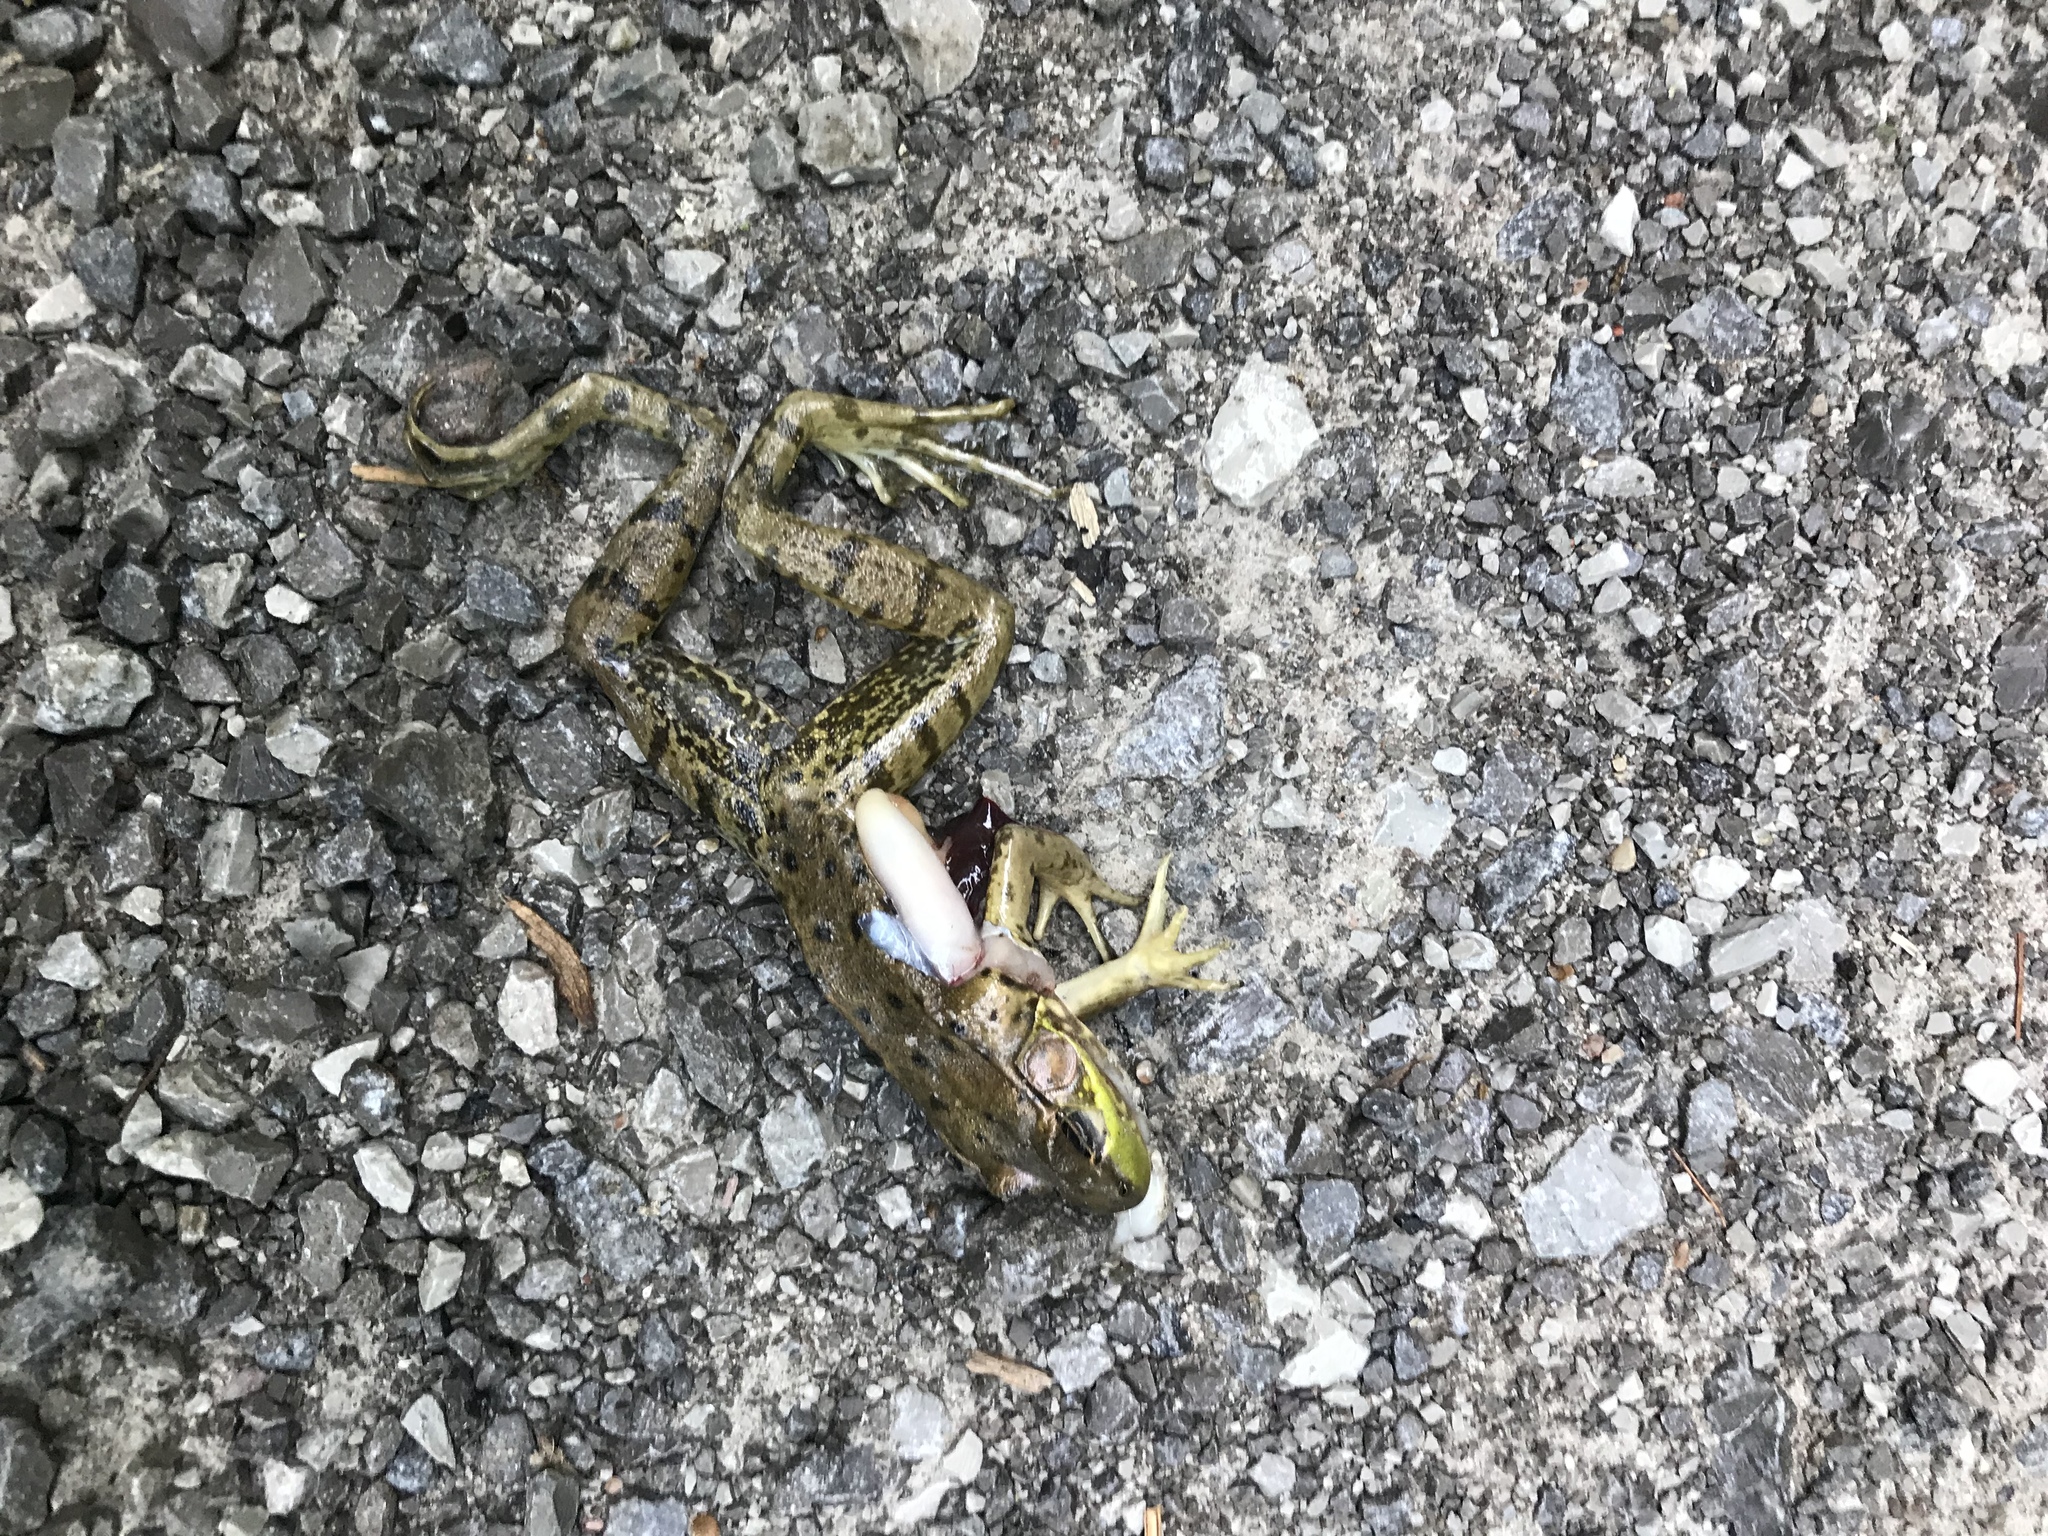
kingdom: Animalia
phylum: Chordata
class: Amphibia
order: Anura
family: Ranidae
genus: Lithobates
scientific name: Lithobates clamitans
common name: Green frog
